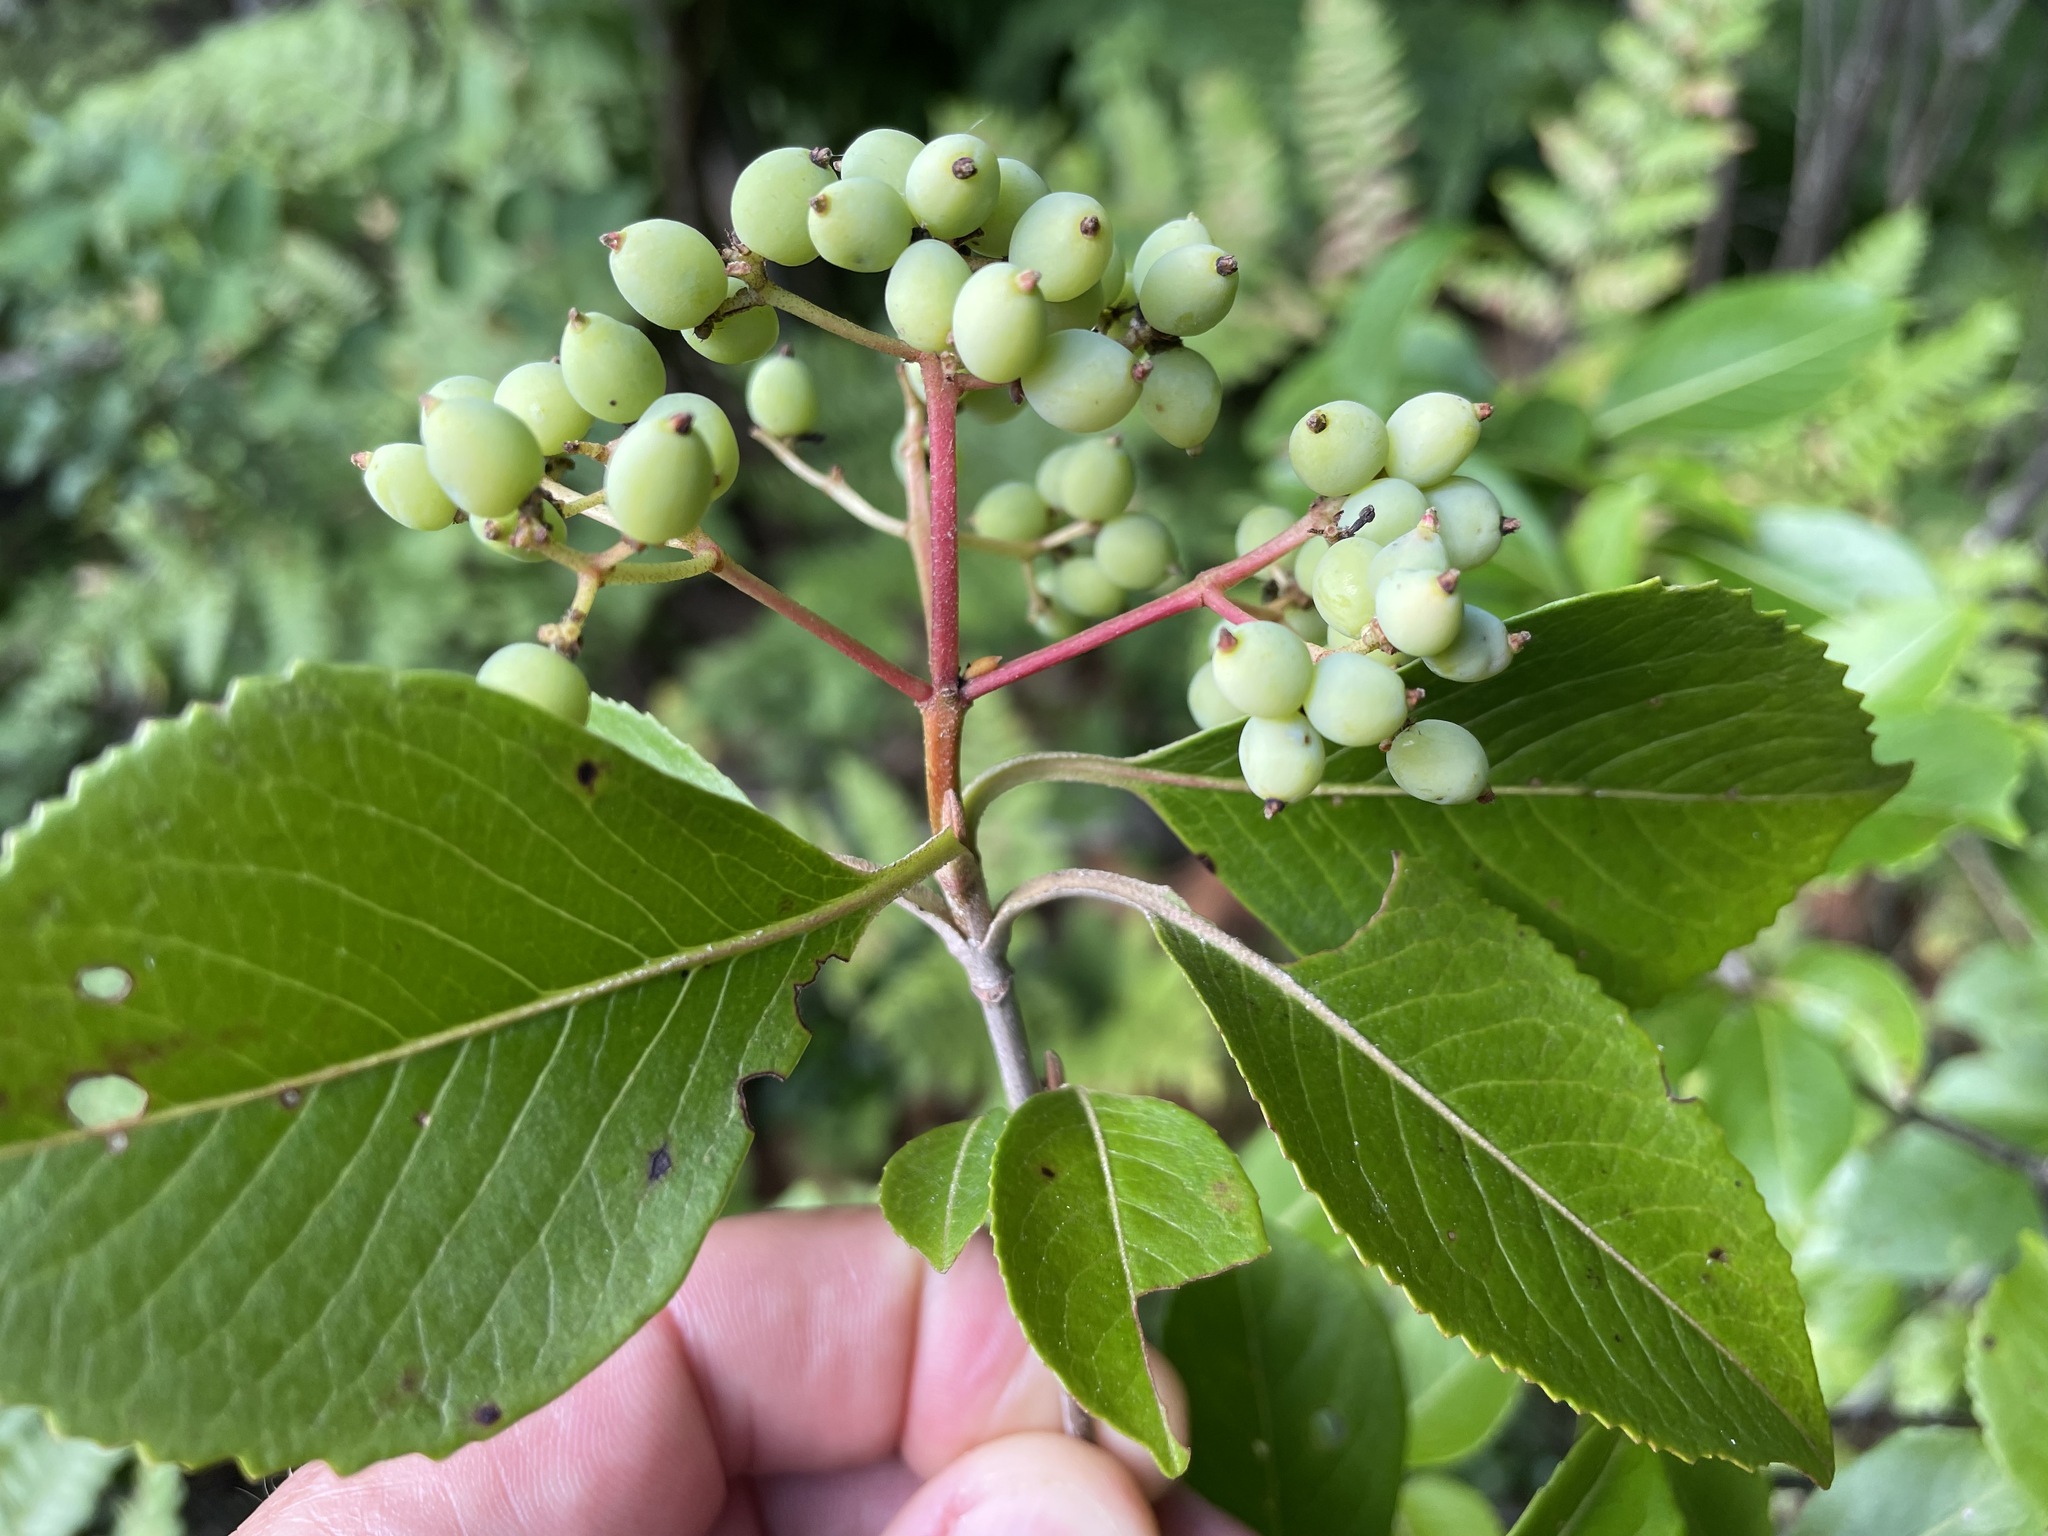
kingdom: Plantae
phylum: Tracheophyta
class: Magnoliopsida
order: Dipsacales
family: Viburnaceae
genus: Viburnum
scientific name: Viburnum cassinoides
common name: Swamp haw
